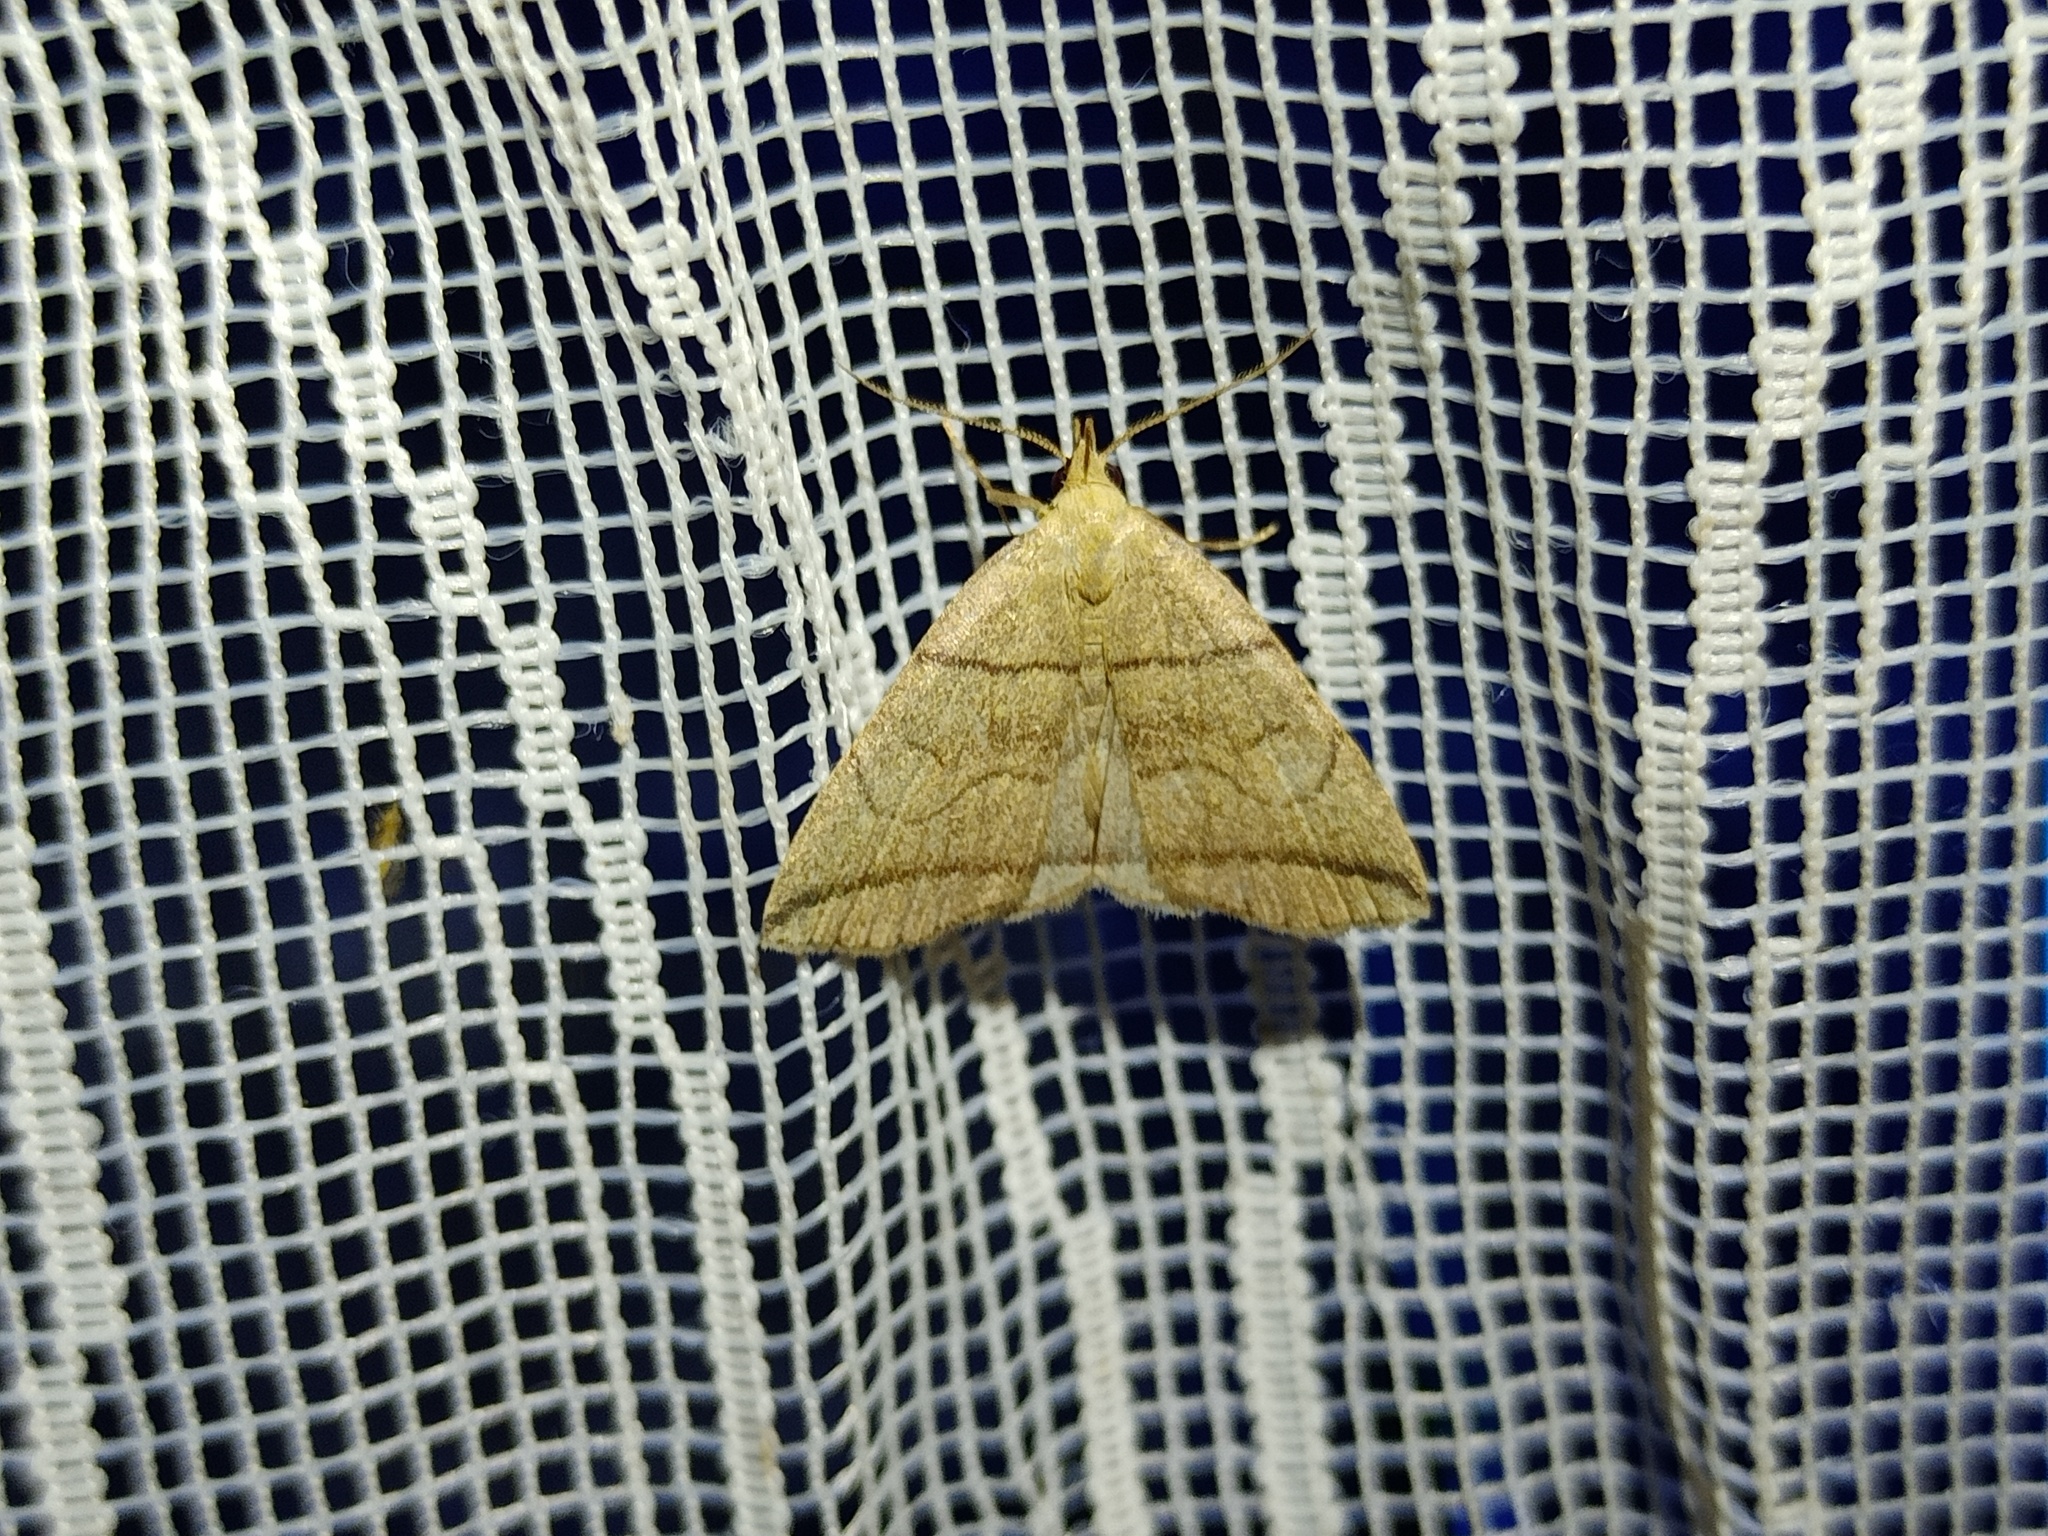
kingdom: Animalia
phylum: Arthropoda
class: Insecta
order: Lepidoptera
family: Erebidae
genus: Herminia
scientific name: Herminia grisealis
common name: Small fan-foot
